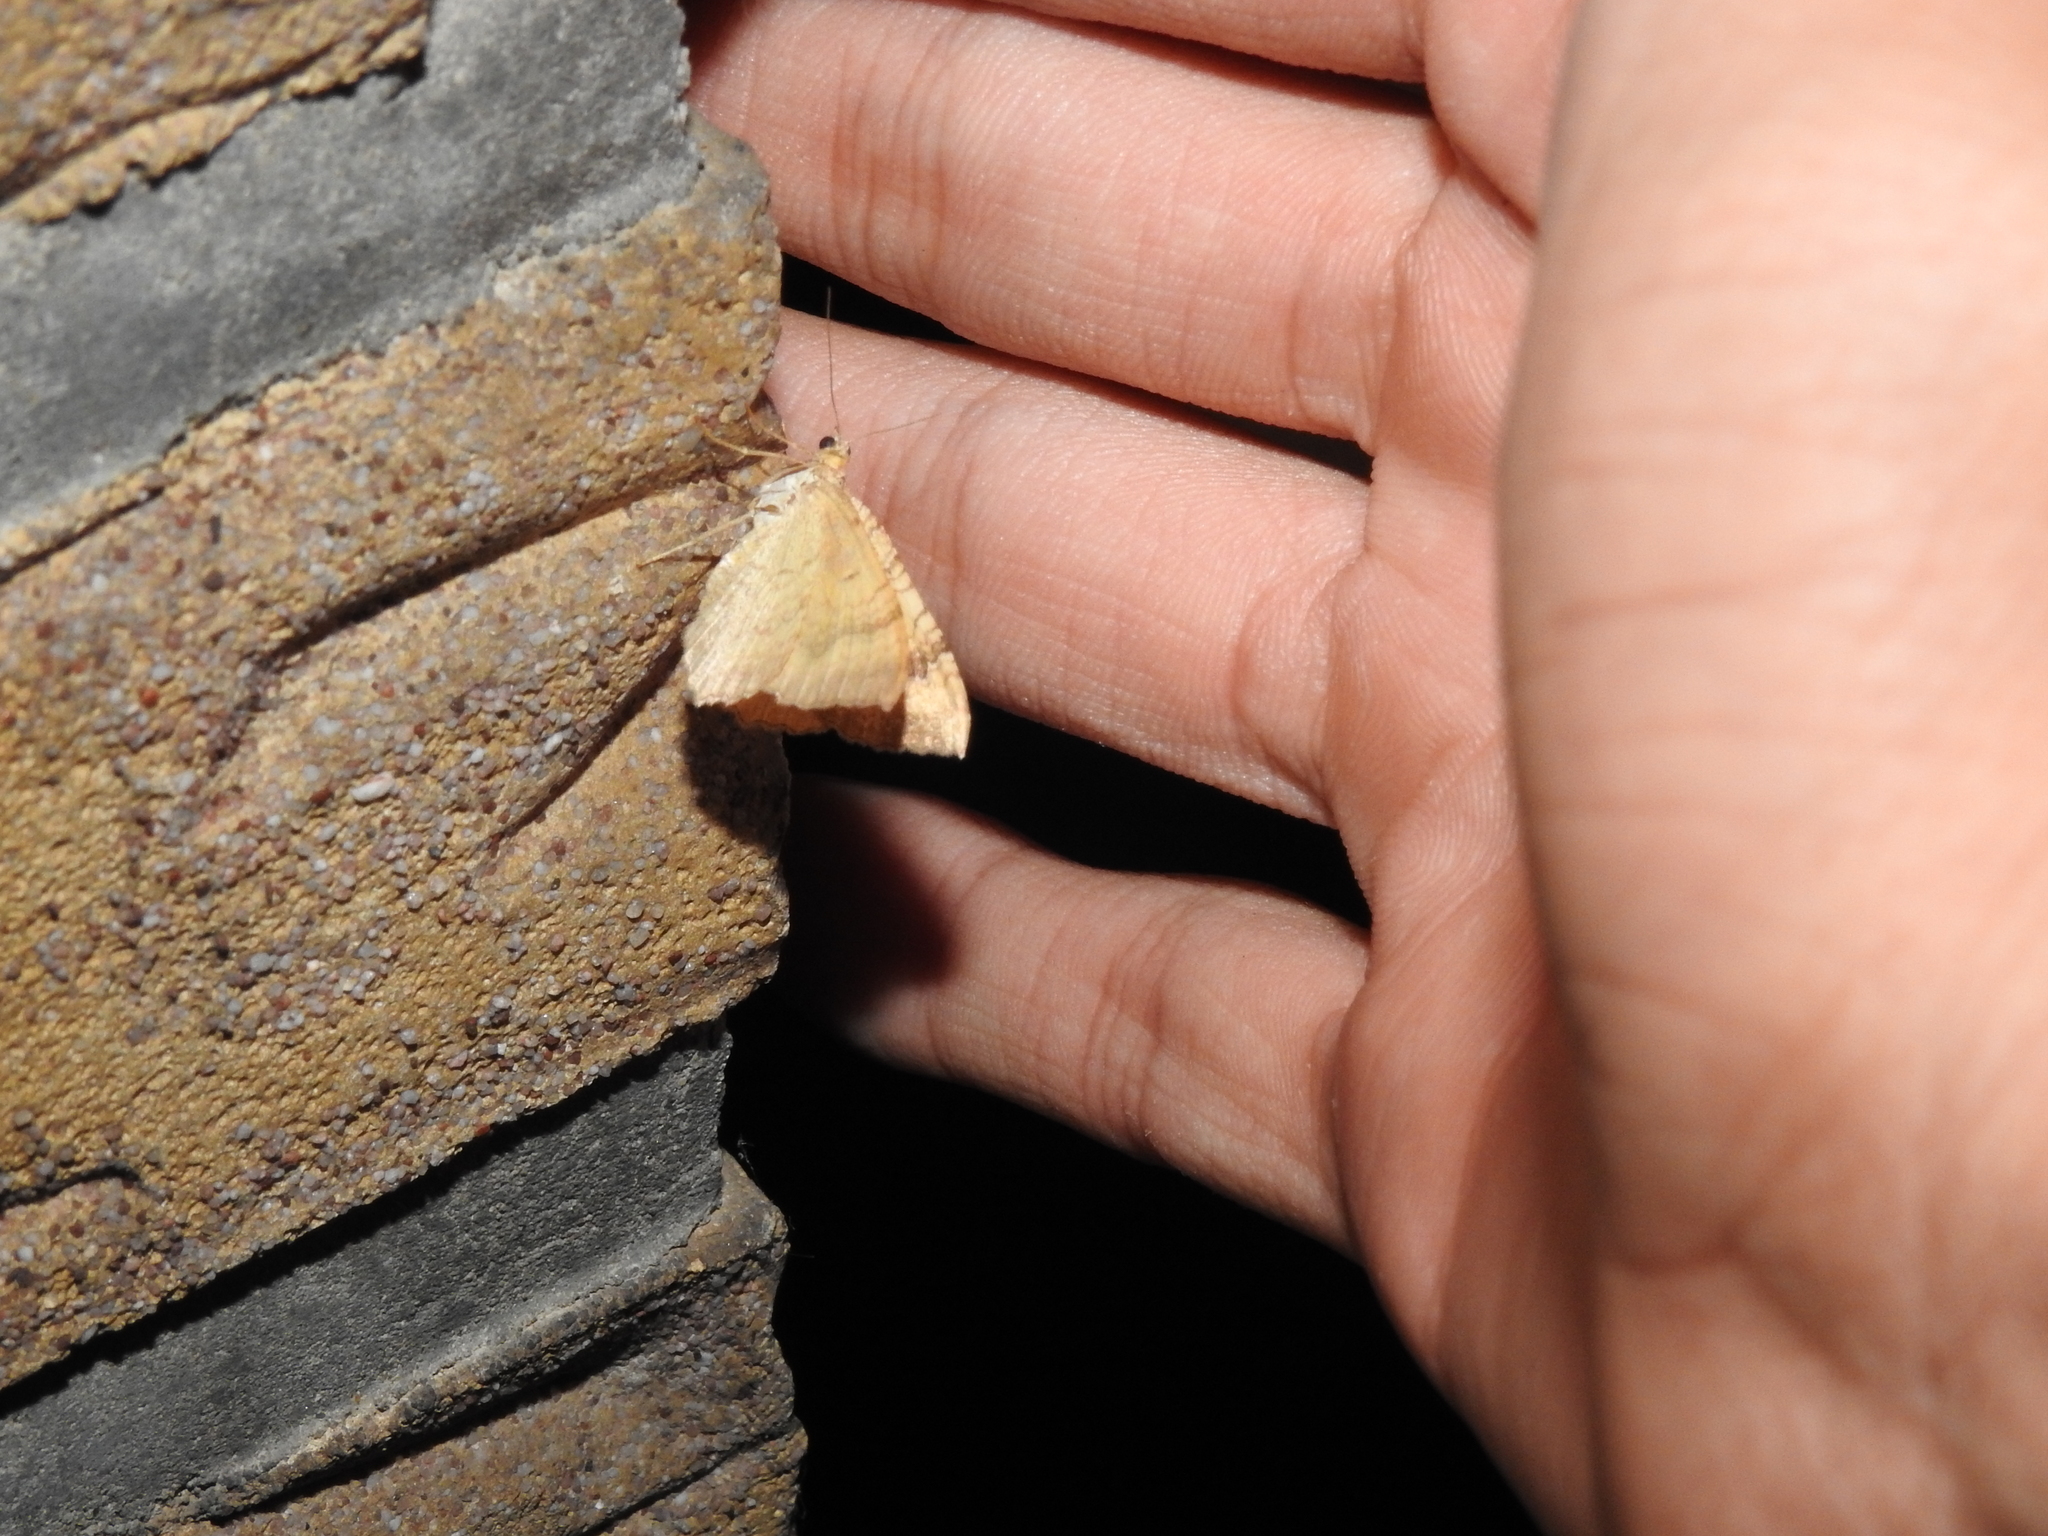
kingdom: Animalia
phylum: Arthropoda
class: Insecta
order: Lepidoptera
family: Geometridae
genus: Camptogramma
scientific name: Camptogramma bilineata
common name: Yellow shell
